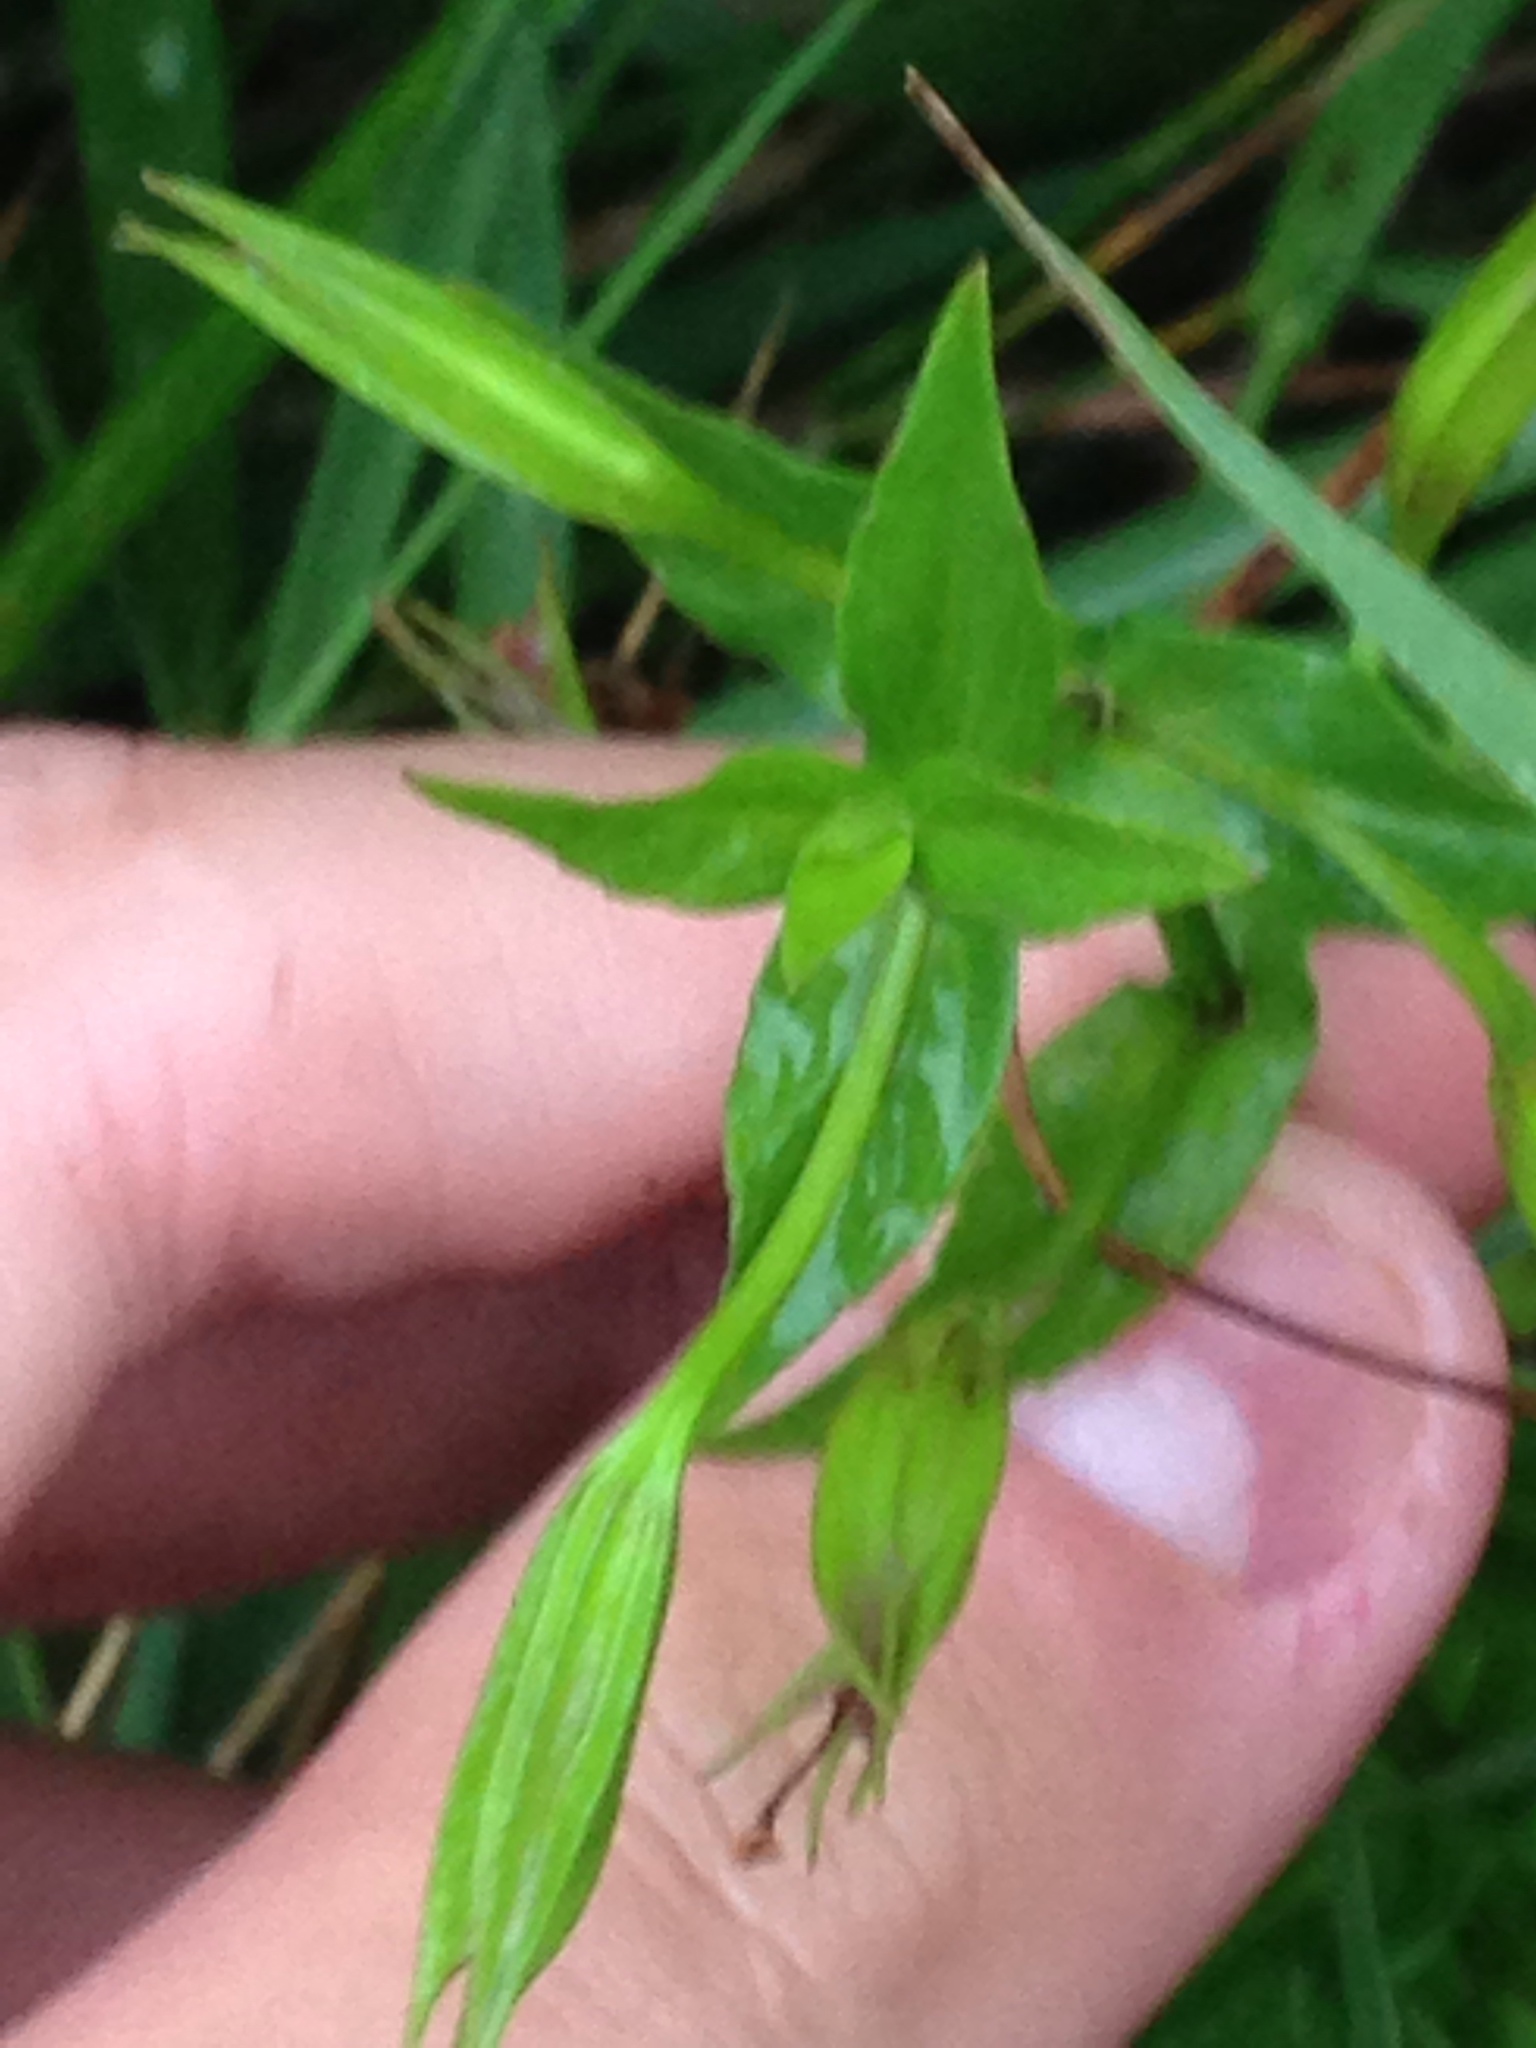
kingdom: Plantae
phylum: Tracheophyta
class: Magnoliopsida
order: Lamiales
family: Phrymaceae
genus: Mimulus
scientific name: Mimulus ringens
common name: Allegheny monkeyflower
